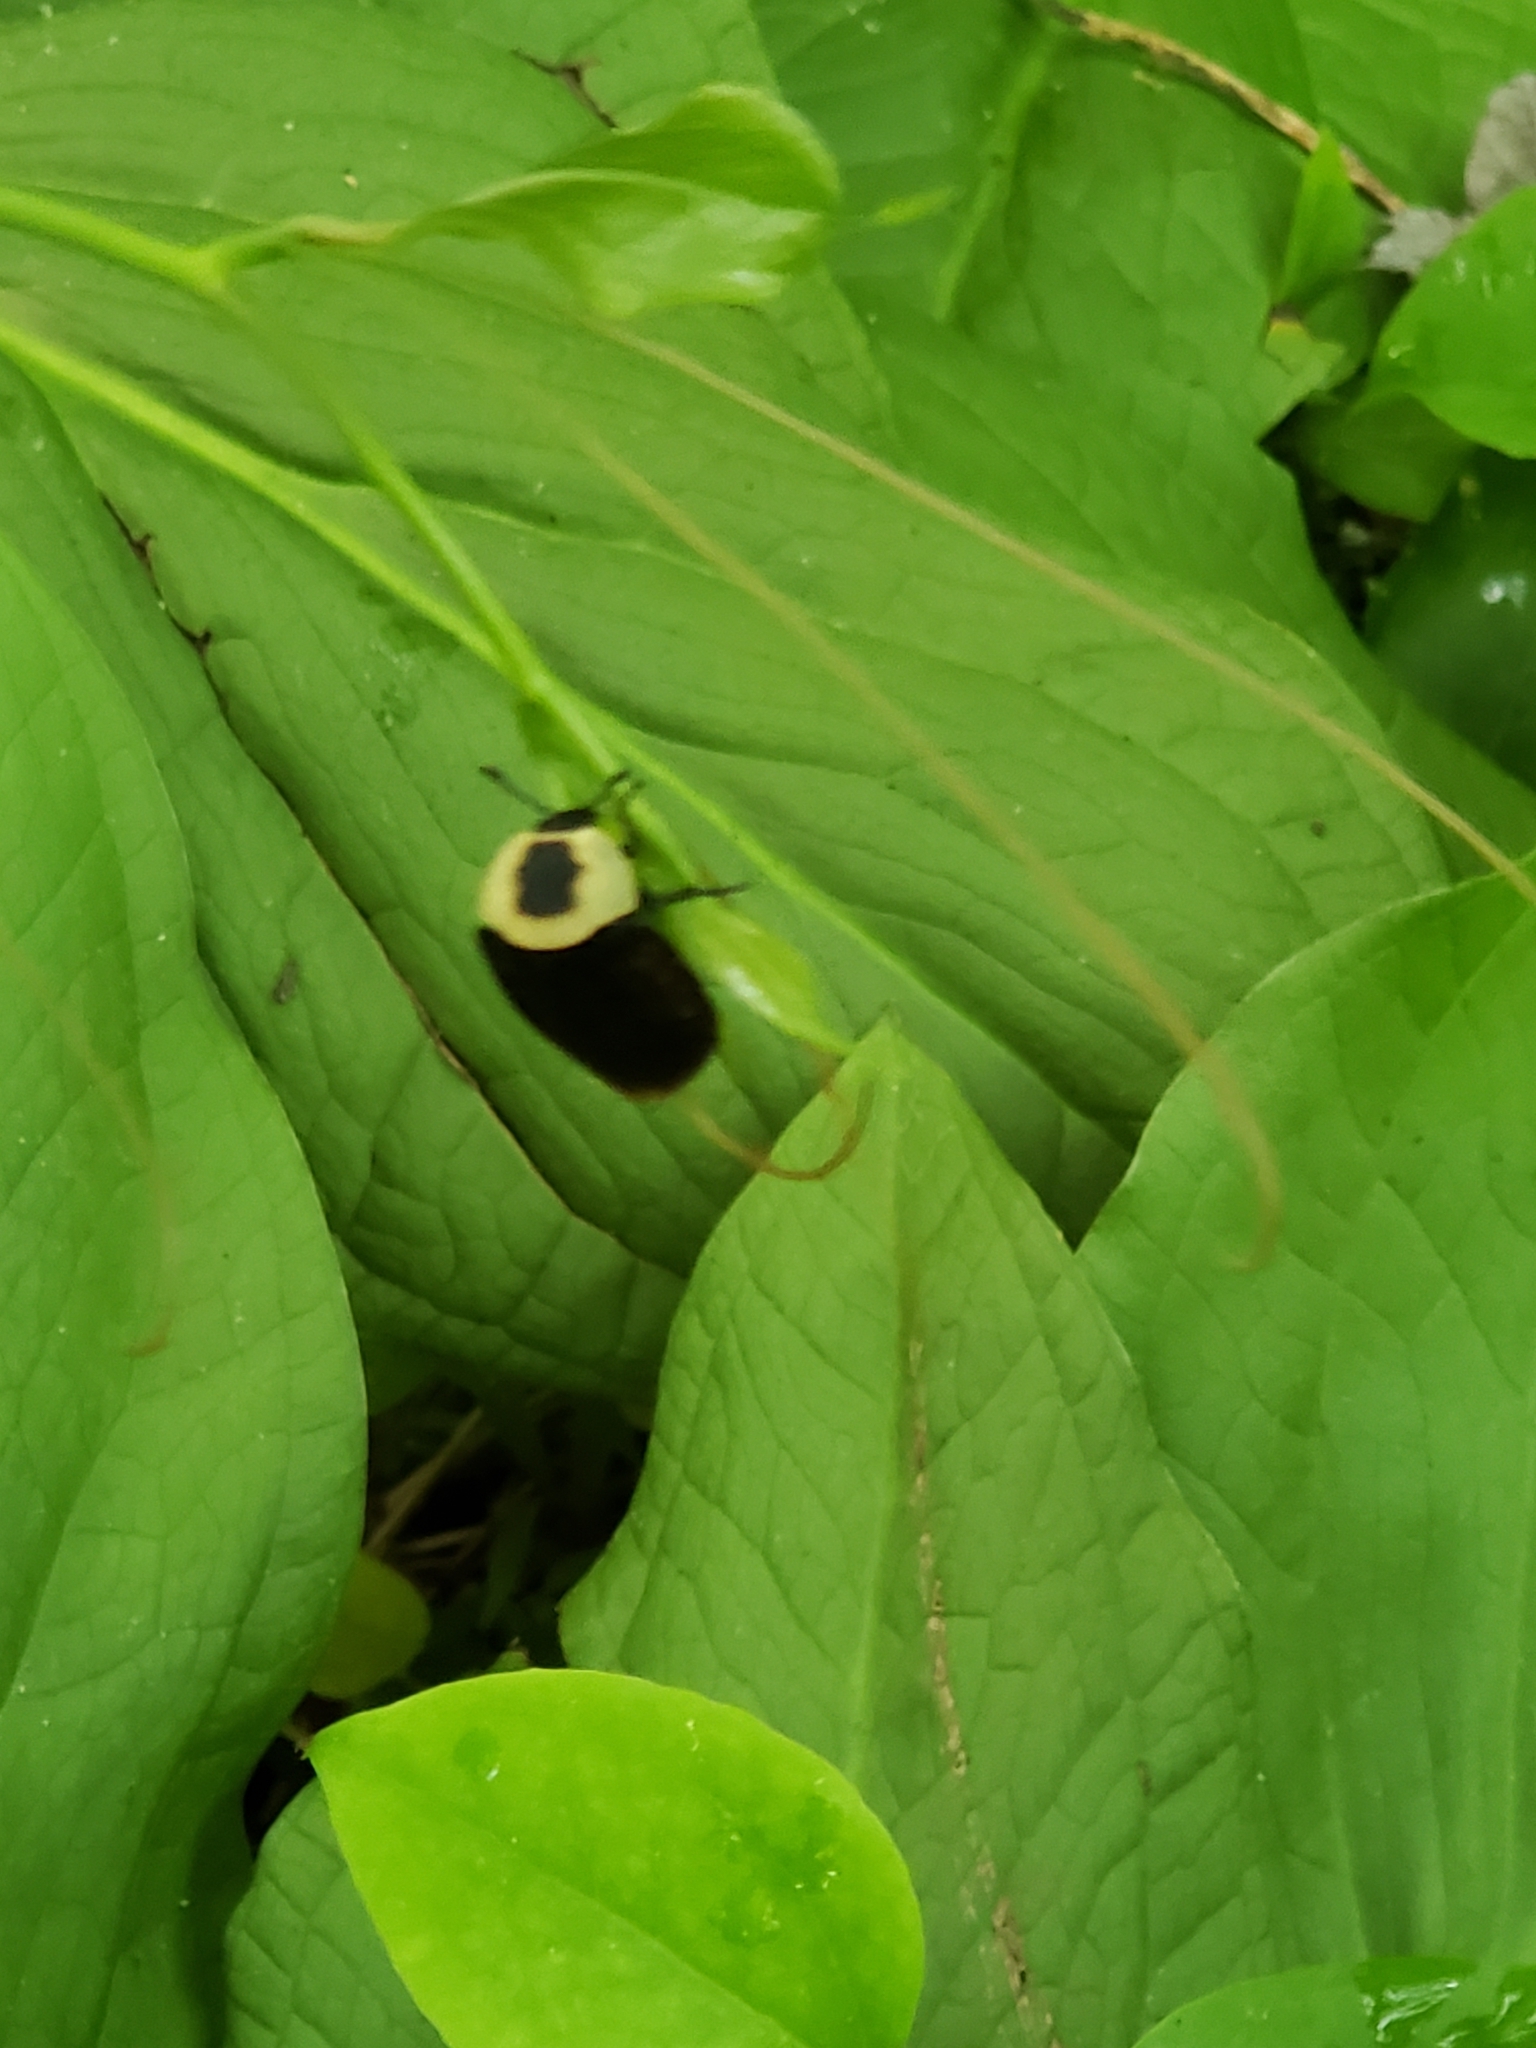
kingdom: Animalia
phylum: Arthropoda
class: Insecta
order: Coleoptera
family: Staphylinidae
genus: Necrophila
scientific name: Necrophila americana
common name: American carrion beetle
